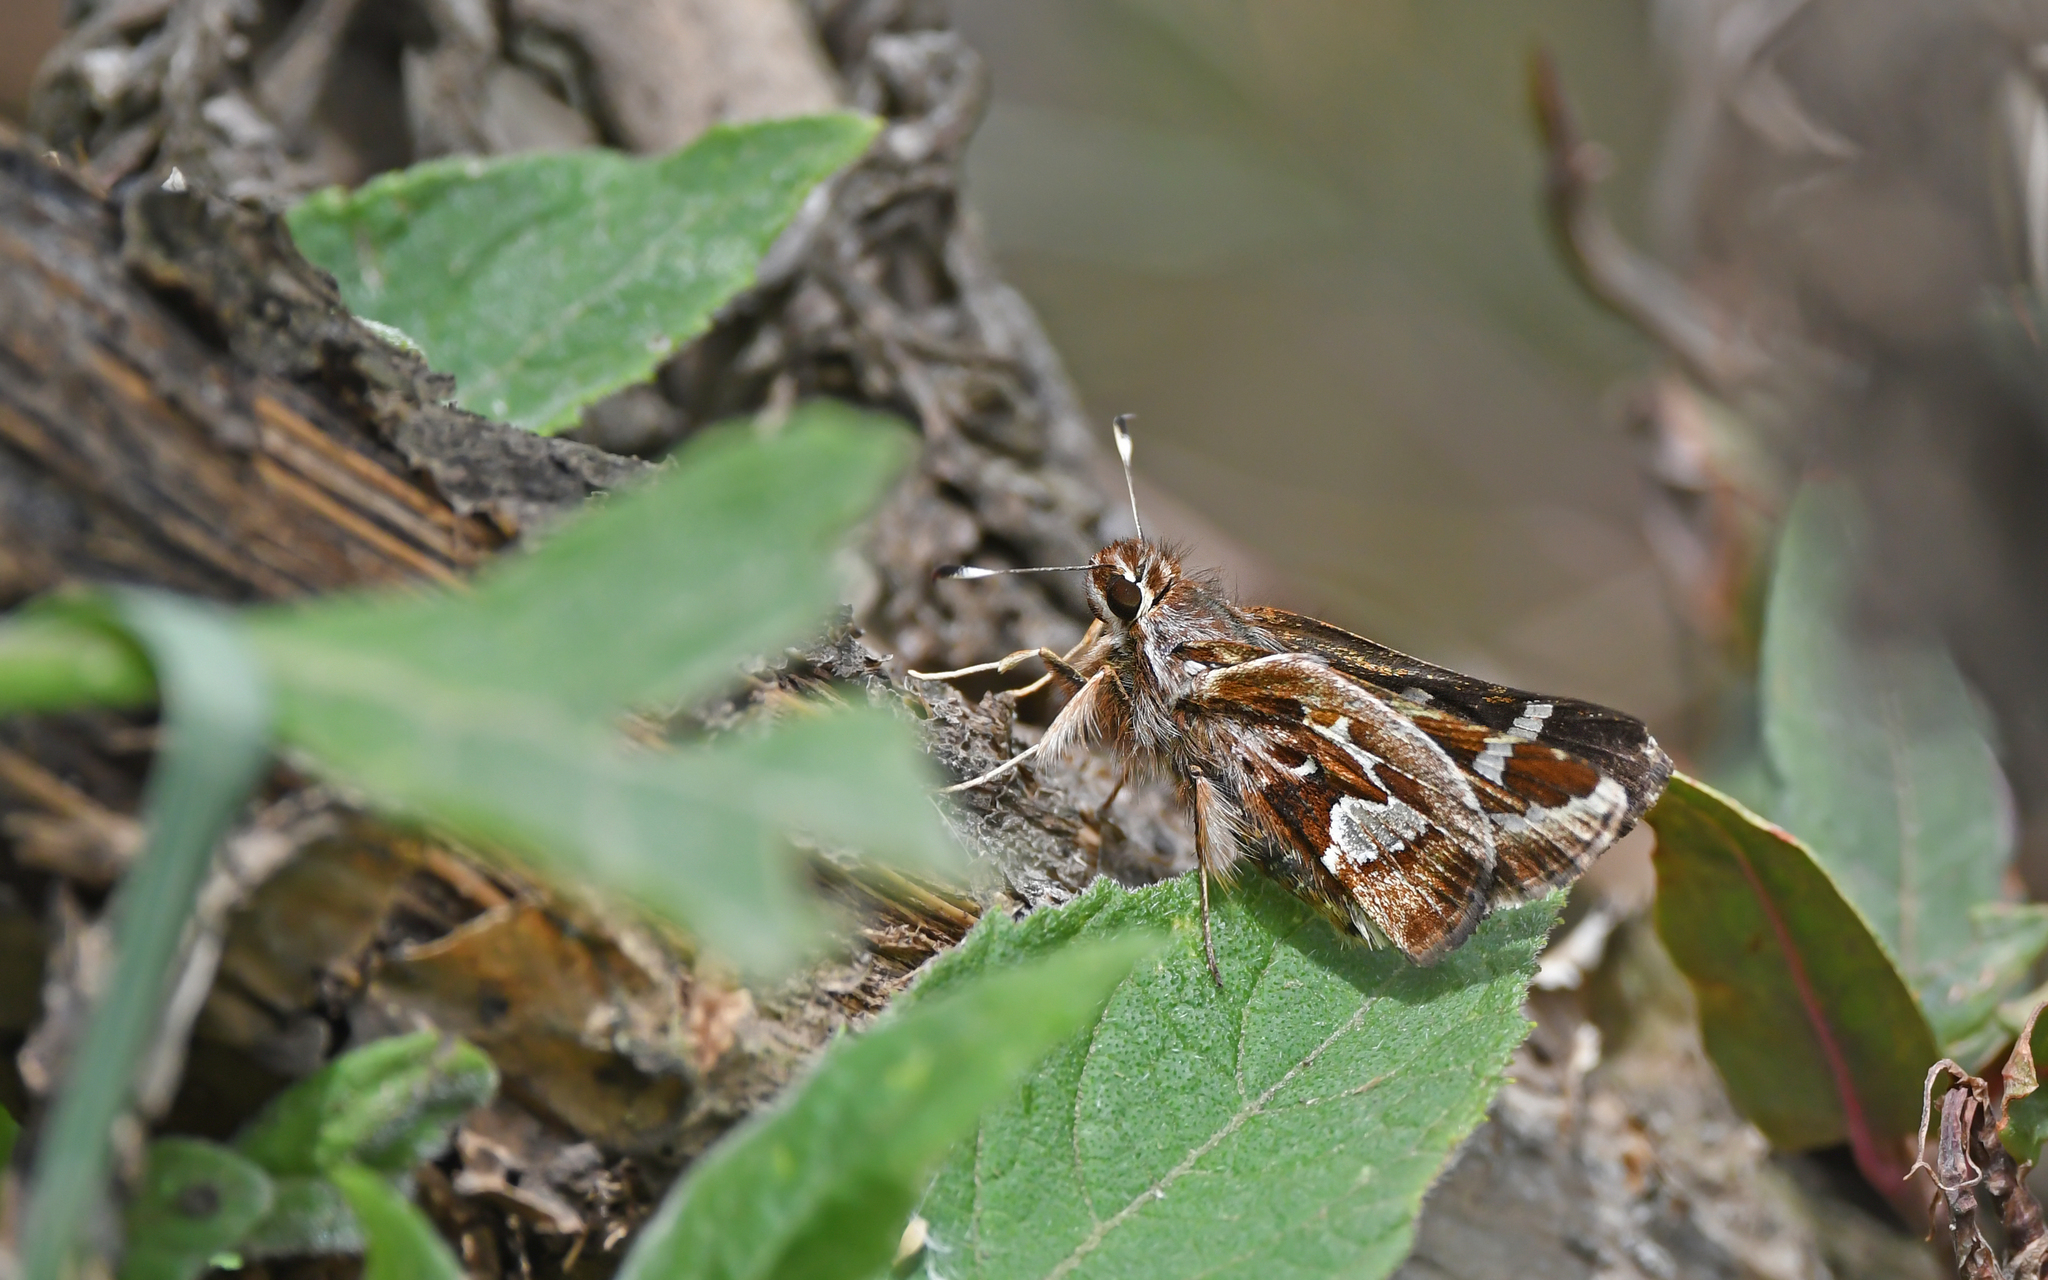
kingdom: Animalia
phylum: Arthropoda
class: Insecta
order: Lepidoptera
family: Hesperiidae
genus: Thespieus
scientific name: Thespieus othna
